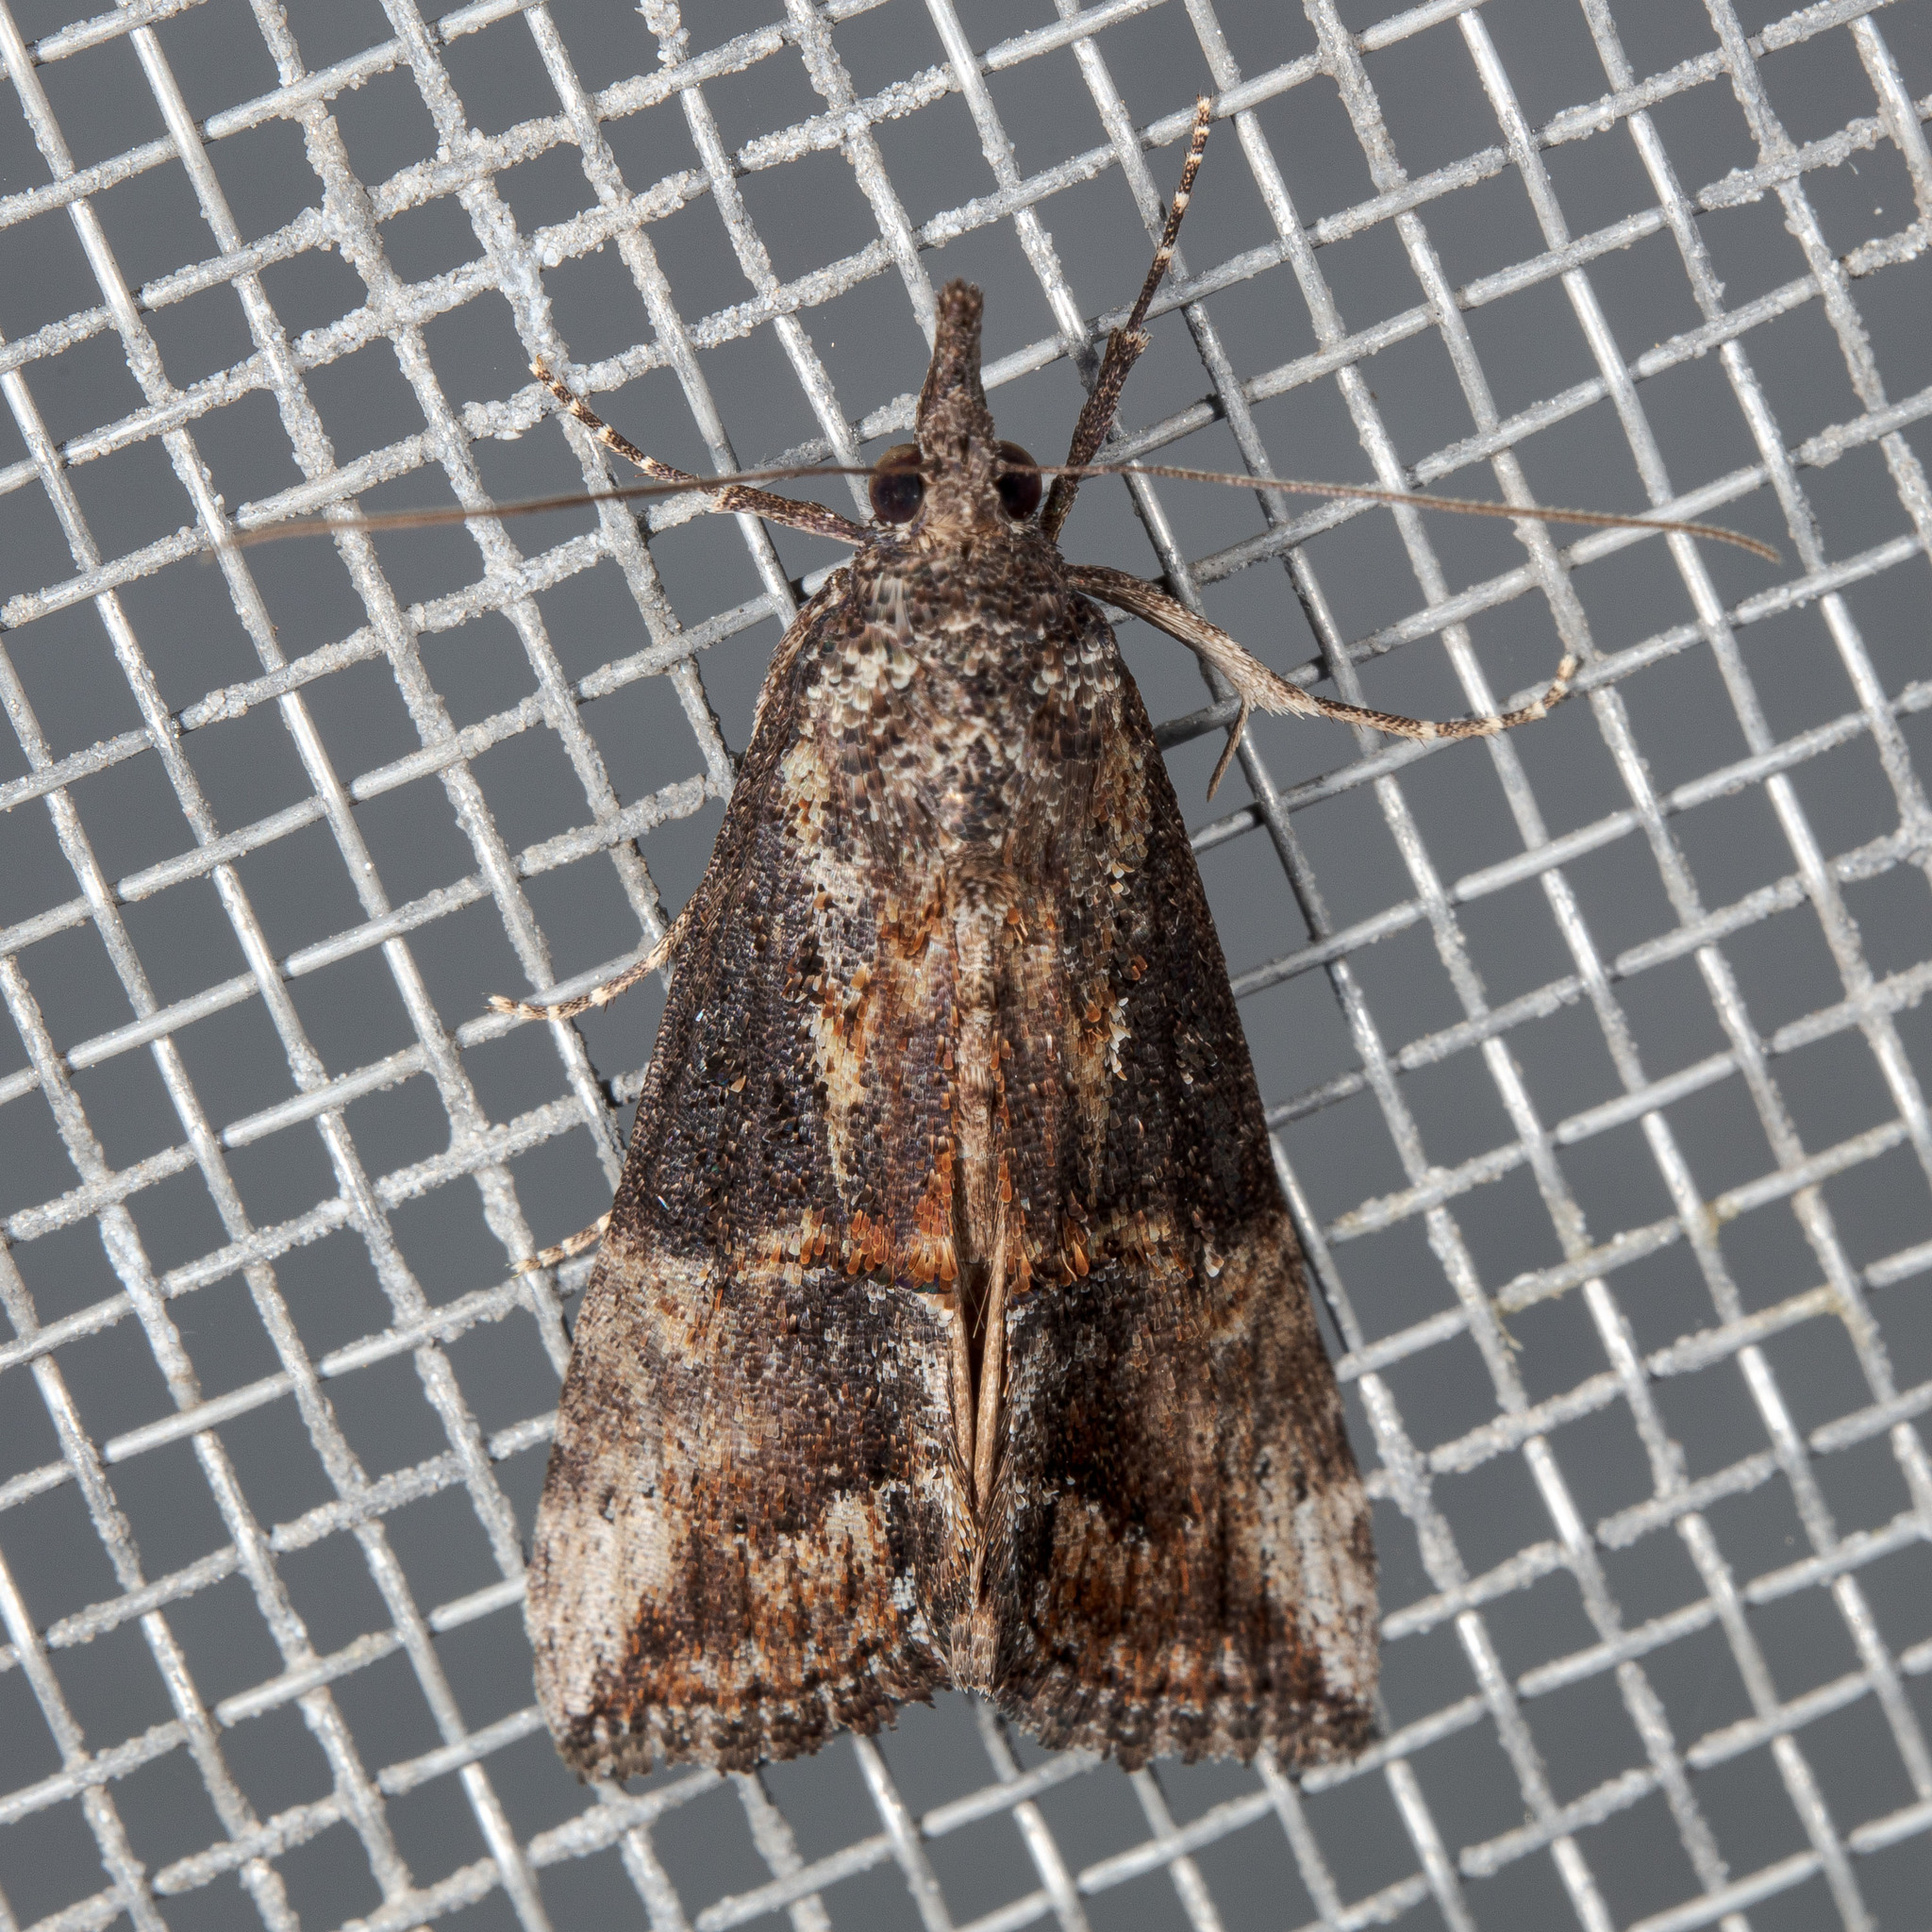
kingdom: Animalia
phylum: Arthropoda
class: Insecta
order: Lepidoptera
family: Erebidae
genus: Hypena
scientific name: Hypena scabra
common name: Green cloverworm
